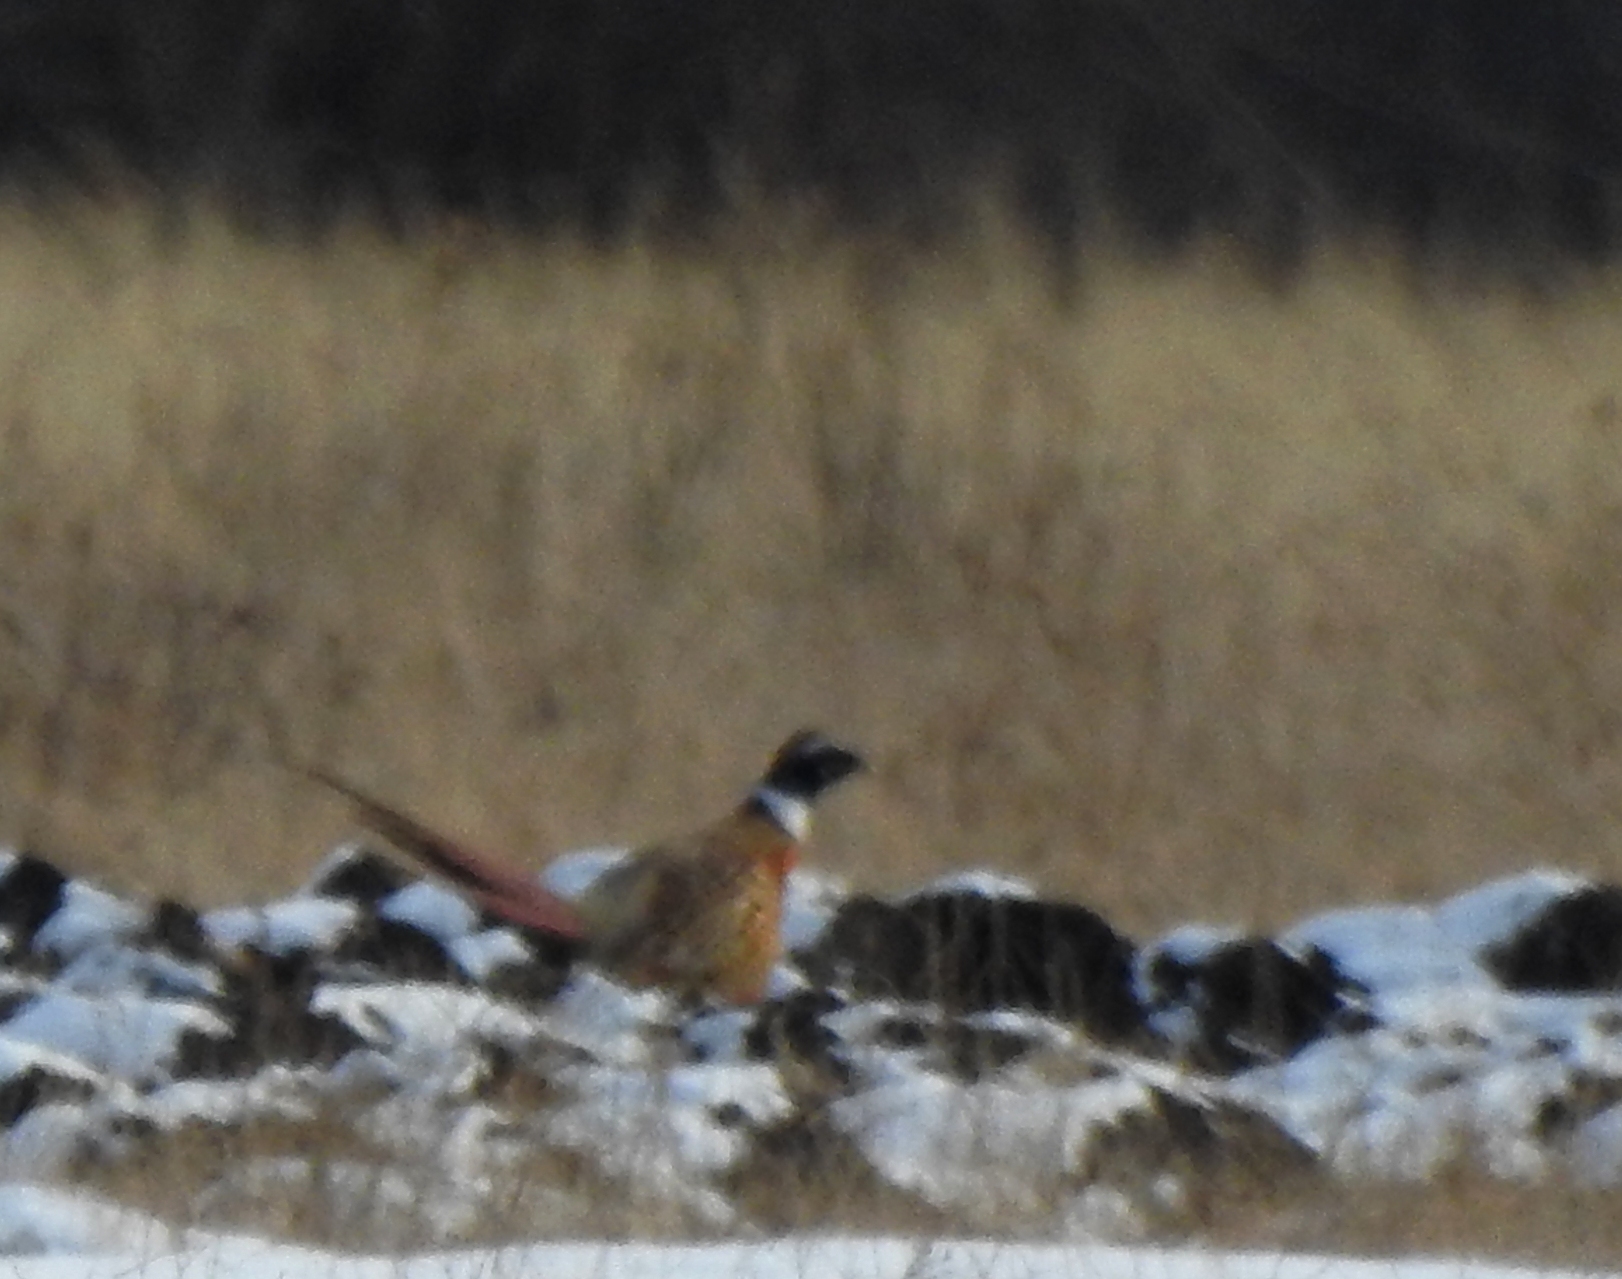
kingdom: Animalia
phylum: Chordata
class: Aves
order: Galliformes
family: Phasianidae
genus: Phasianus
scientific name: Phasianus colchicus
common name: Common pheasant
